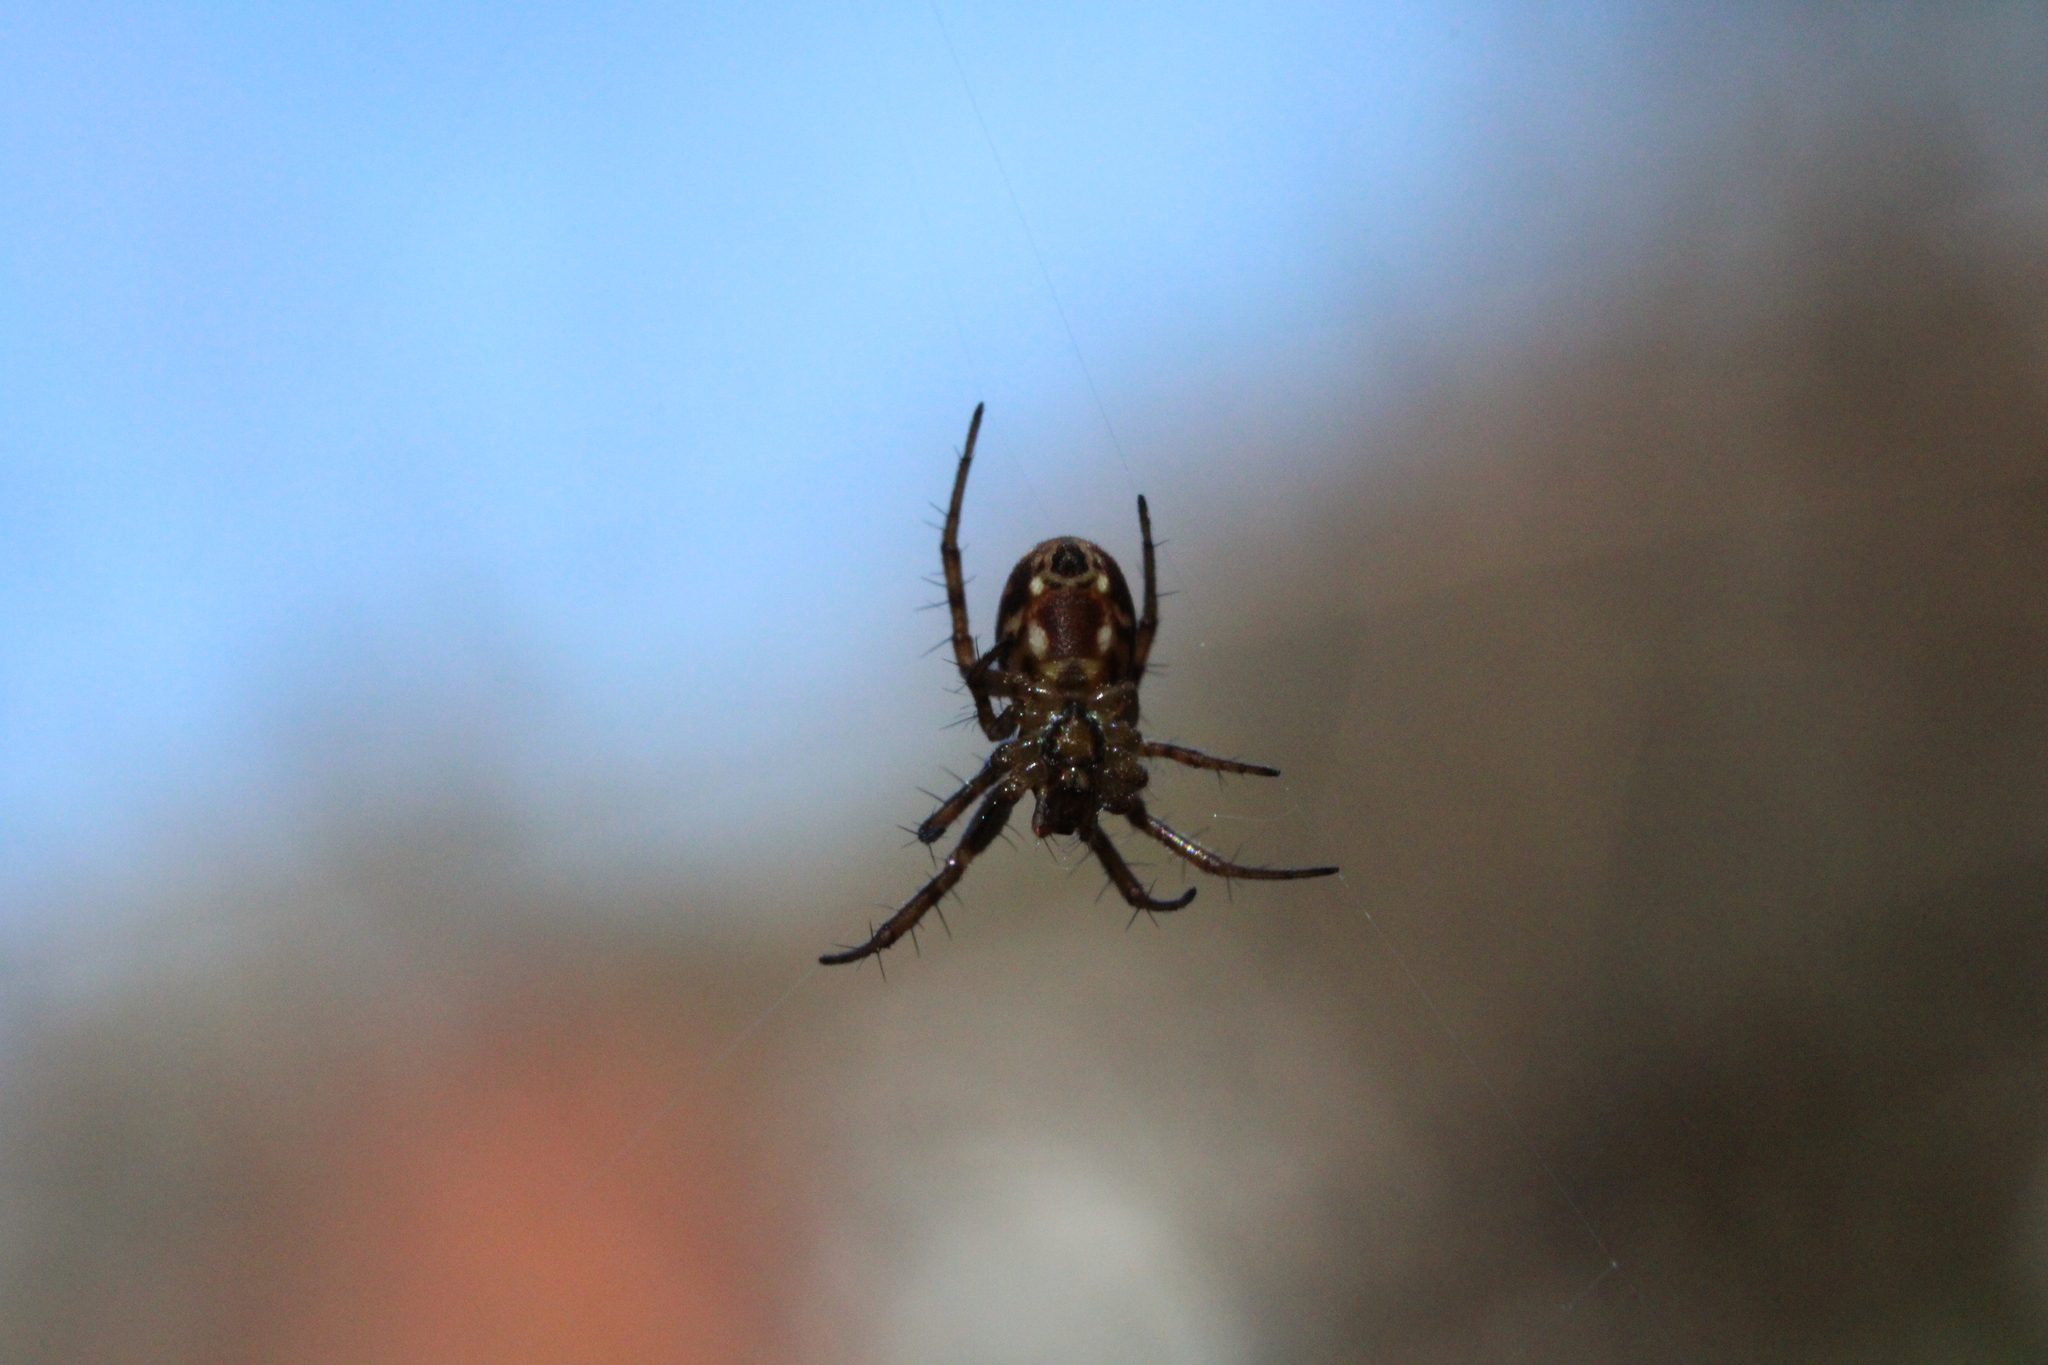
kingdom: Animalia
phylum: Arthropoda
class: Arachnida
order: Araneae
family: Araneidae
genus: Mangora
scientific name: Mangora placida
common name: Tuft-legged orbweaver
